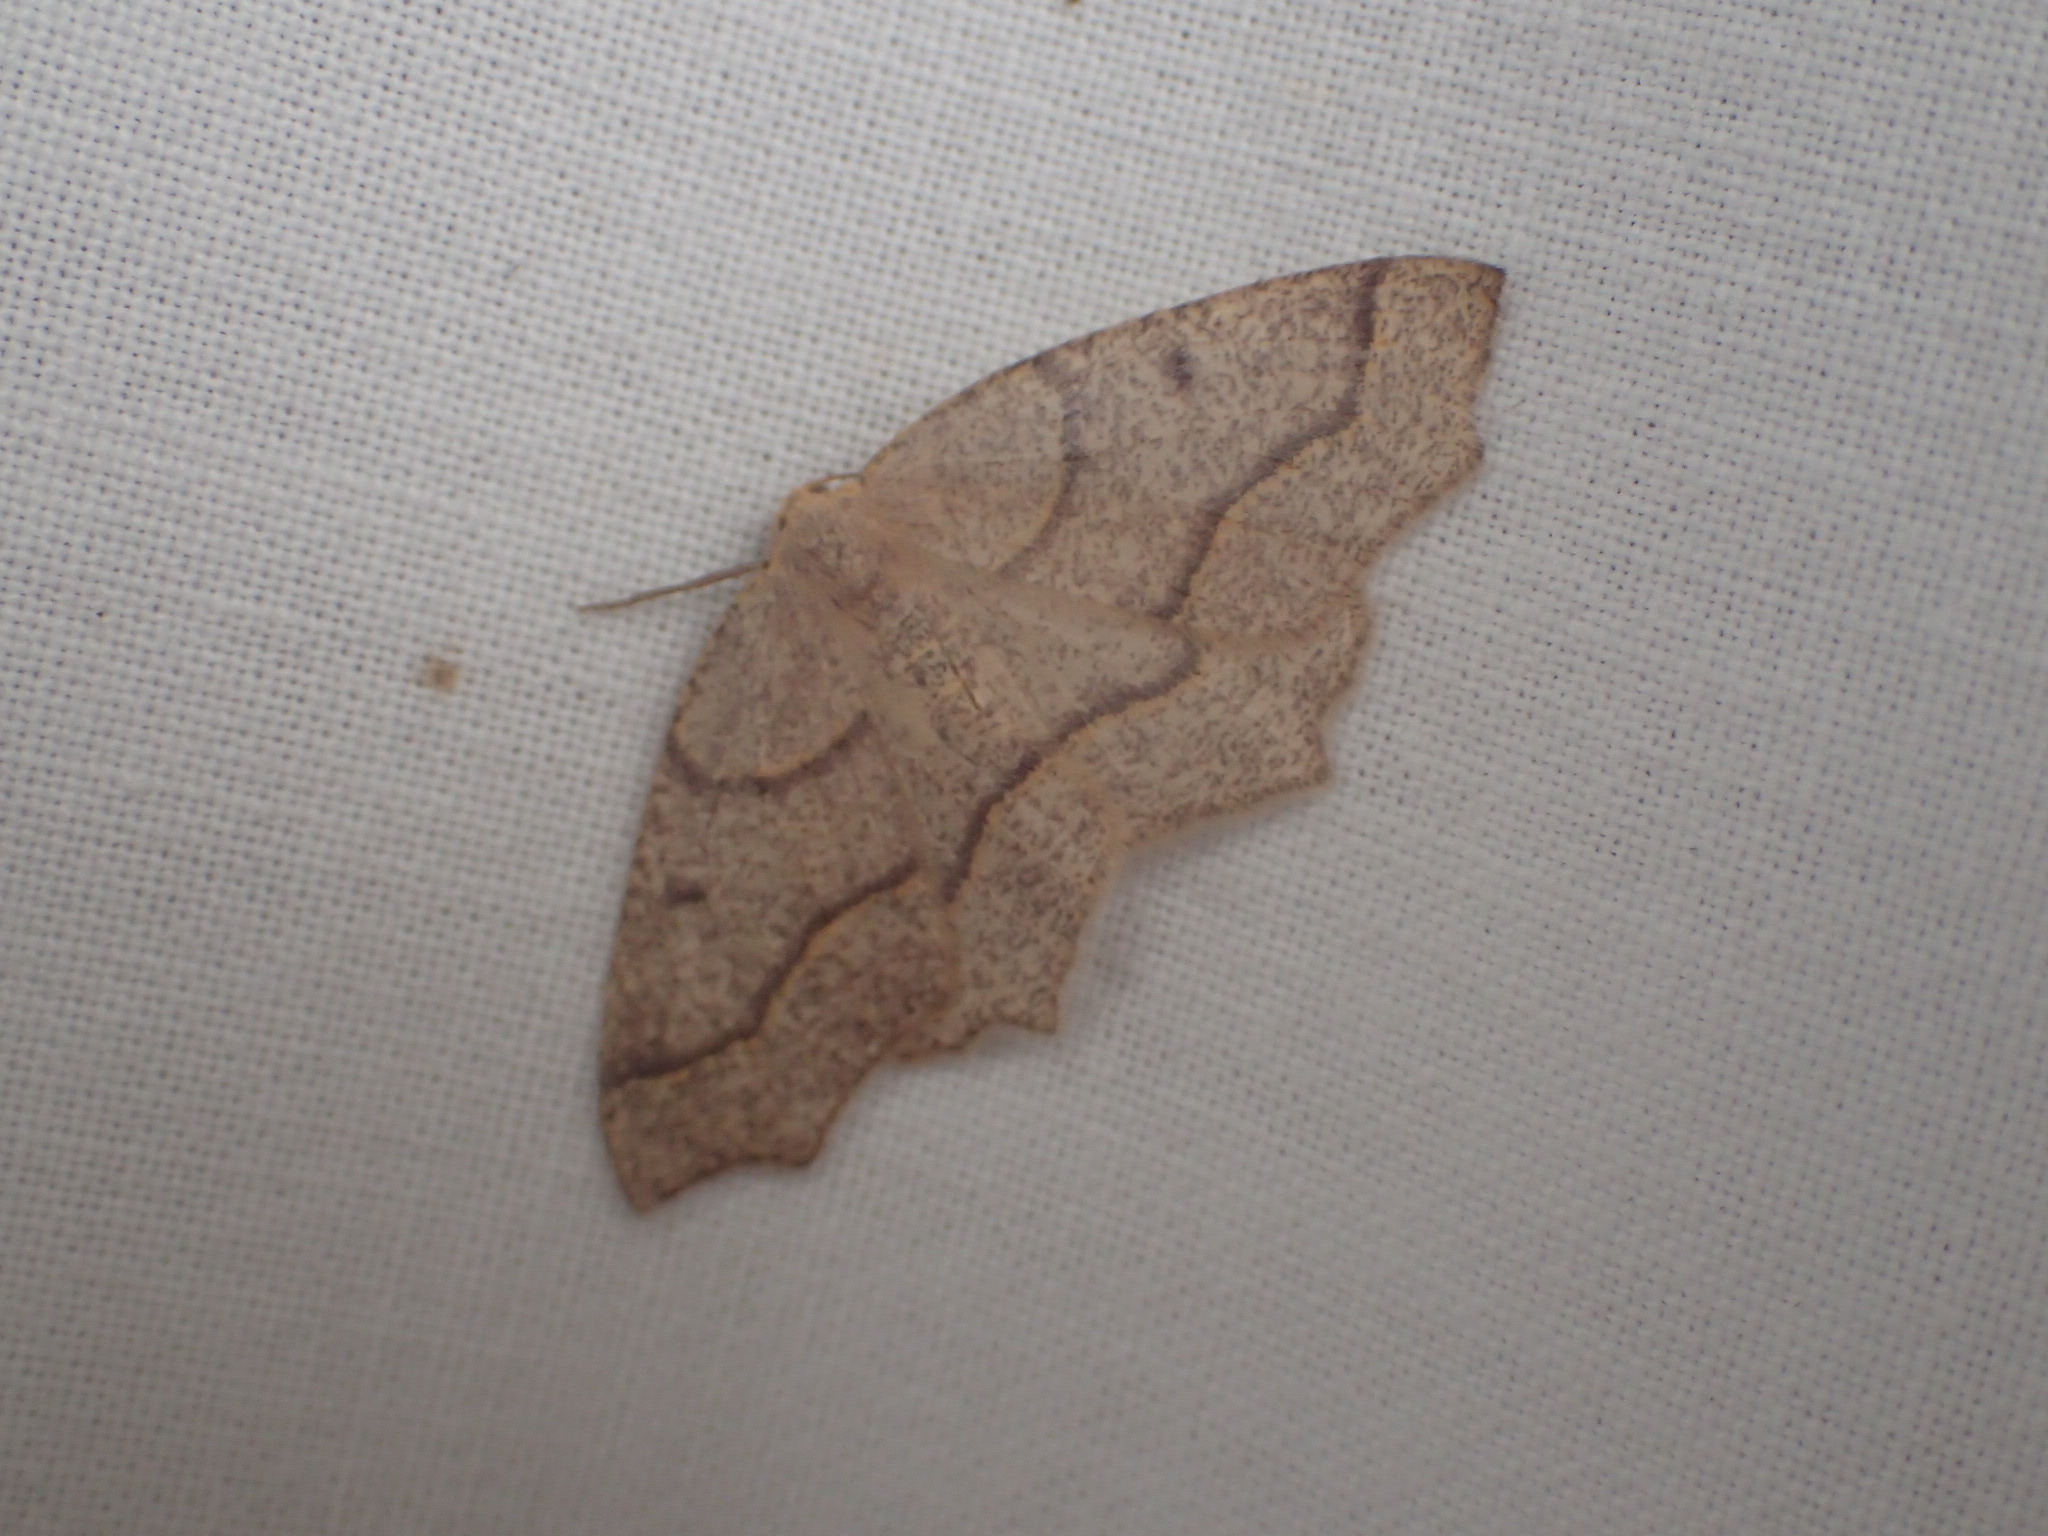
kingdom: Animalia
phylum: Arthropoda
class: Insecta
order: Lepidoptera
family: Geometridae
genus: Lambdina
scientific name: Lambdina fiscellaria
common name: Hemlock looper
